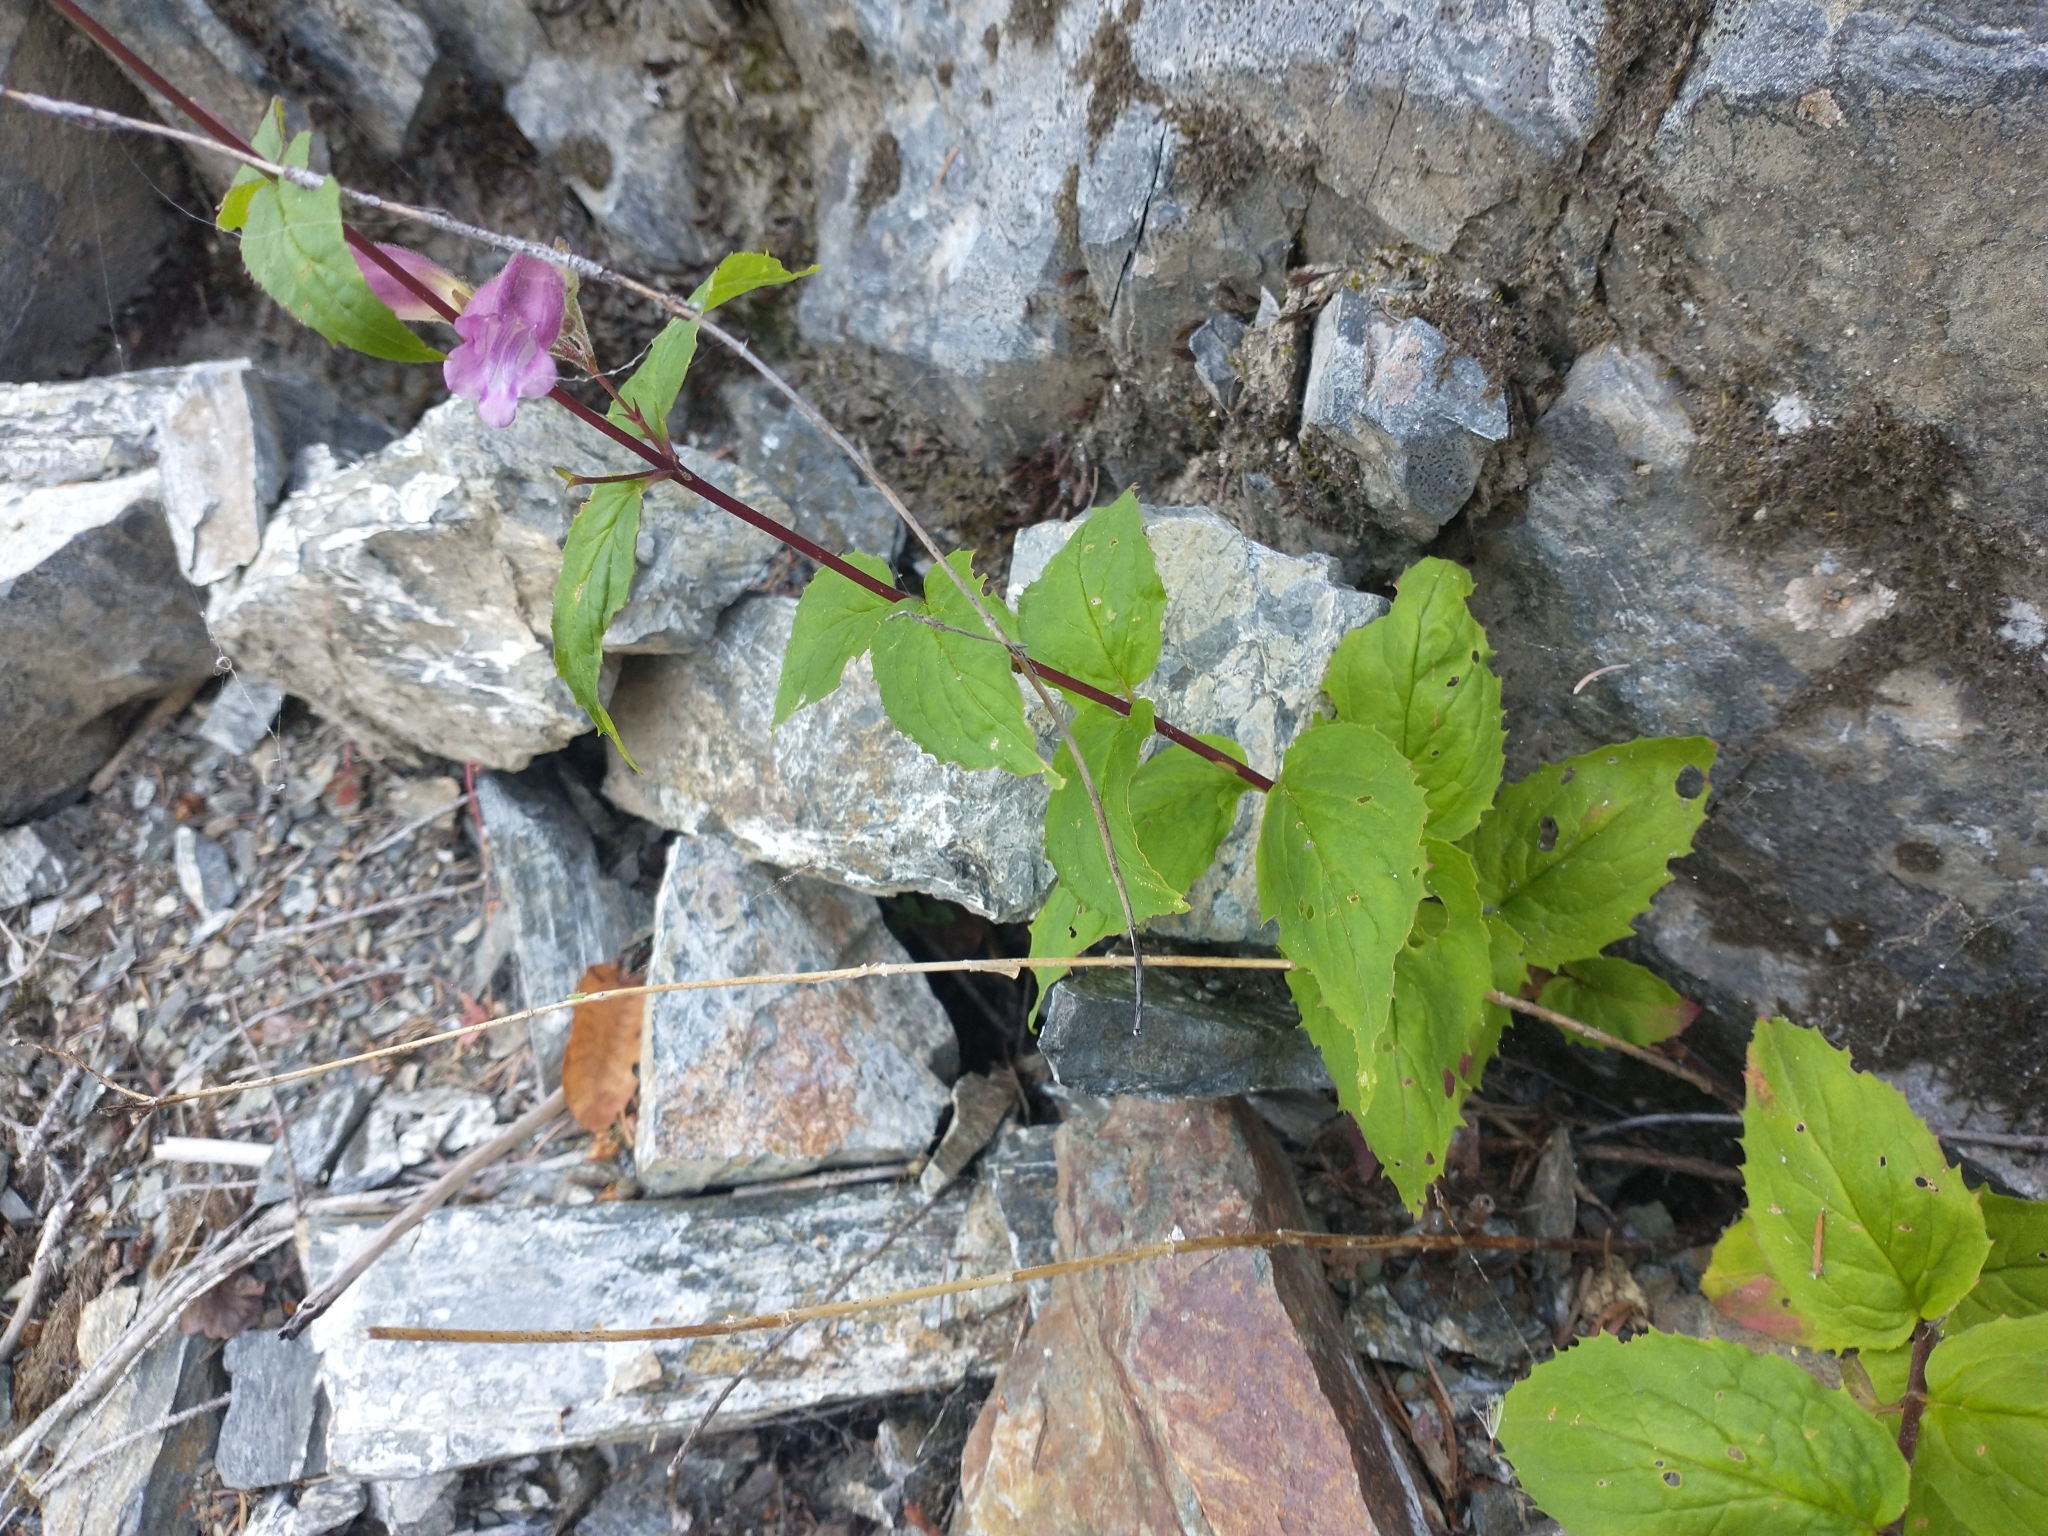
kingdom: Plantae
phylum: Tracheophyta
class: Magnoliopsida
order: Lamiales
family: Plantaginaceae
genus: Nothochelone
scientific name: Nothochelone nemorosa
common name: Woodland beardtongue
